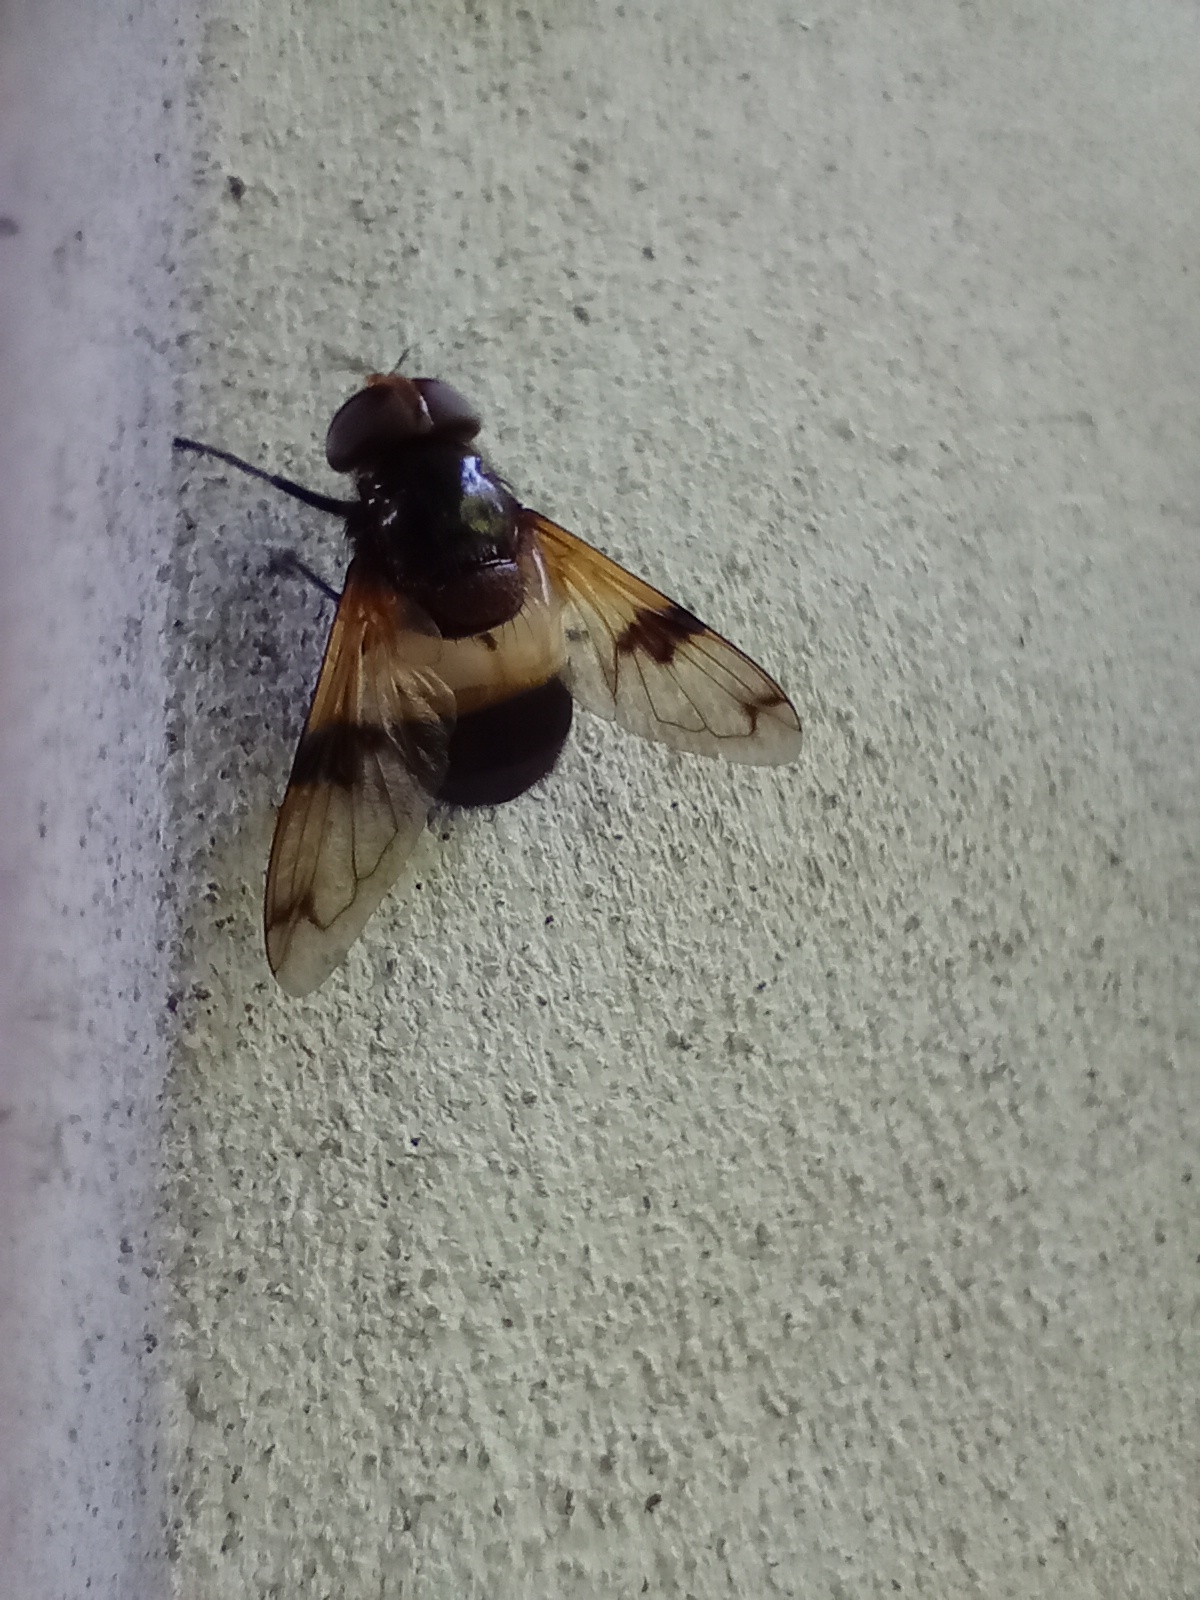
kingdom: Animalia
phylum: Arthropoda
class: Insecta
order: Diptera
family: Syrphidae
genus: Volucella
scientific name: Volucella pellucens
